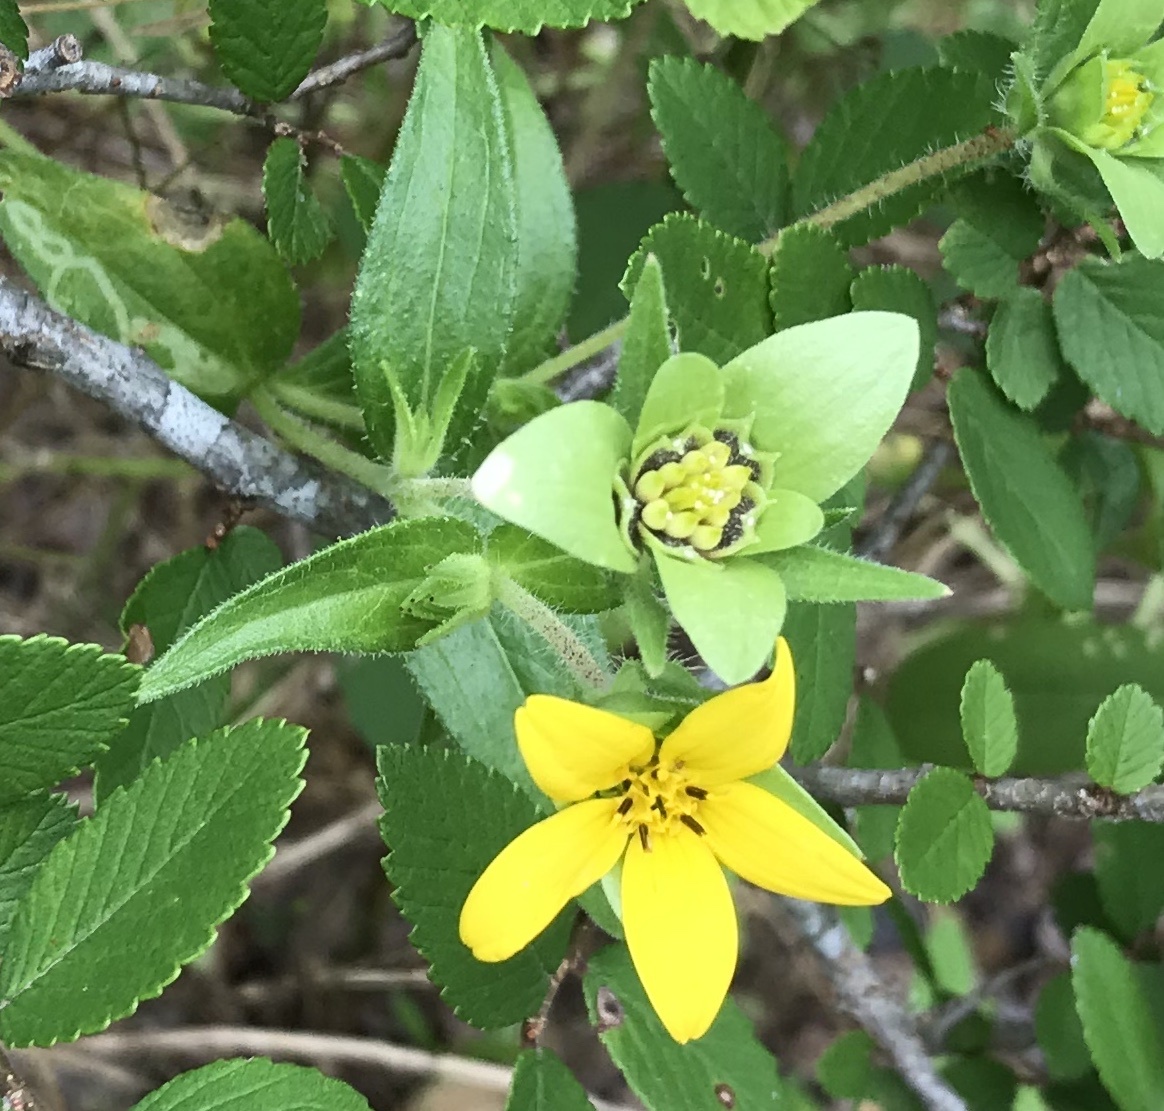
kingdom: Plantae
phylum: Tracheophyta
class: Magnoliopsida
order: Asterales
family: Asteraceae
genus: Lindheimera
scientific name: Lindheimera texana
